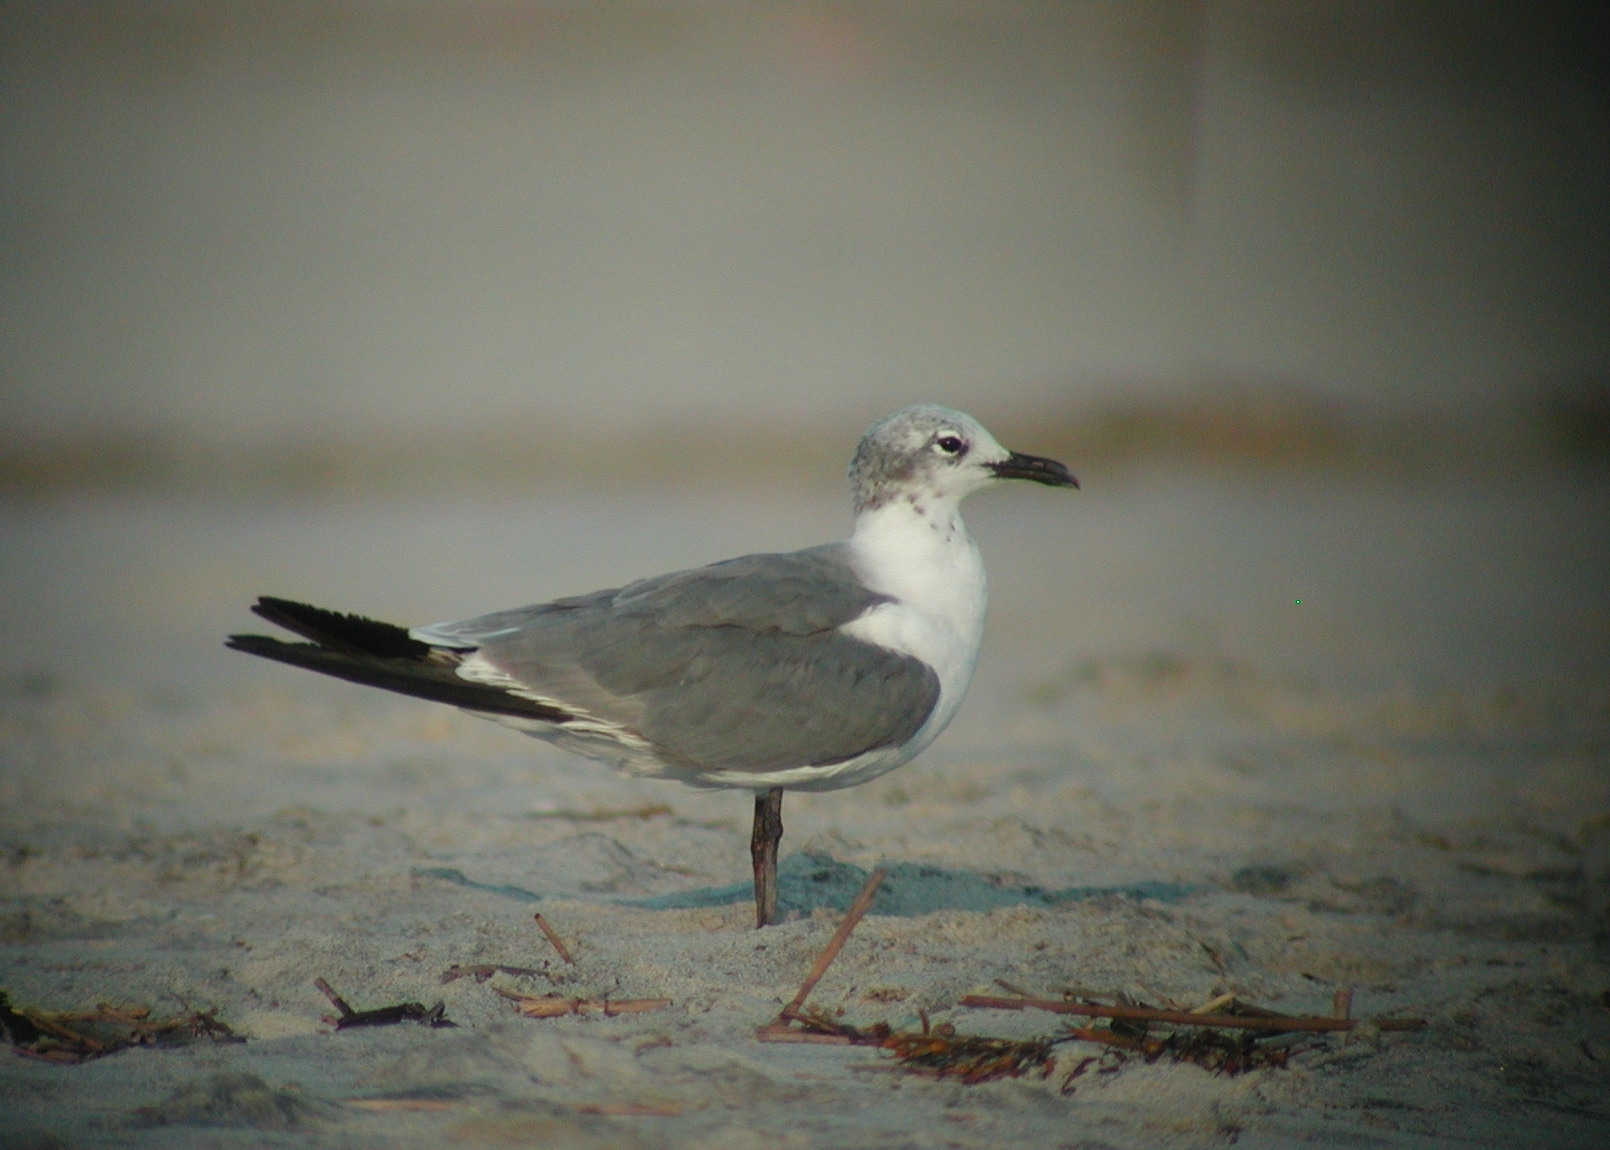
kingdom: Animalia
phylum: Chordata
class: Aves
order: Charadriiformes
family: Laridae
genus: Leucophaeus
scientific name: Leucophaeus atricilla
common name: Laughing gull
